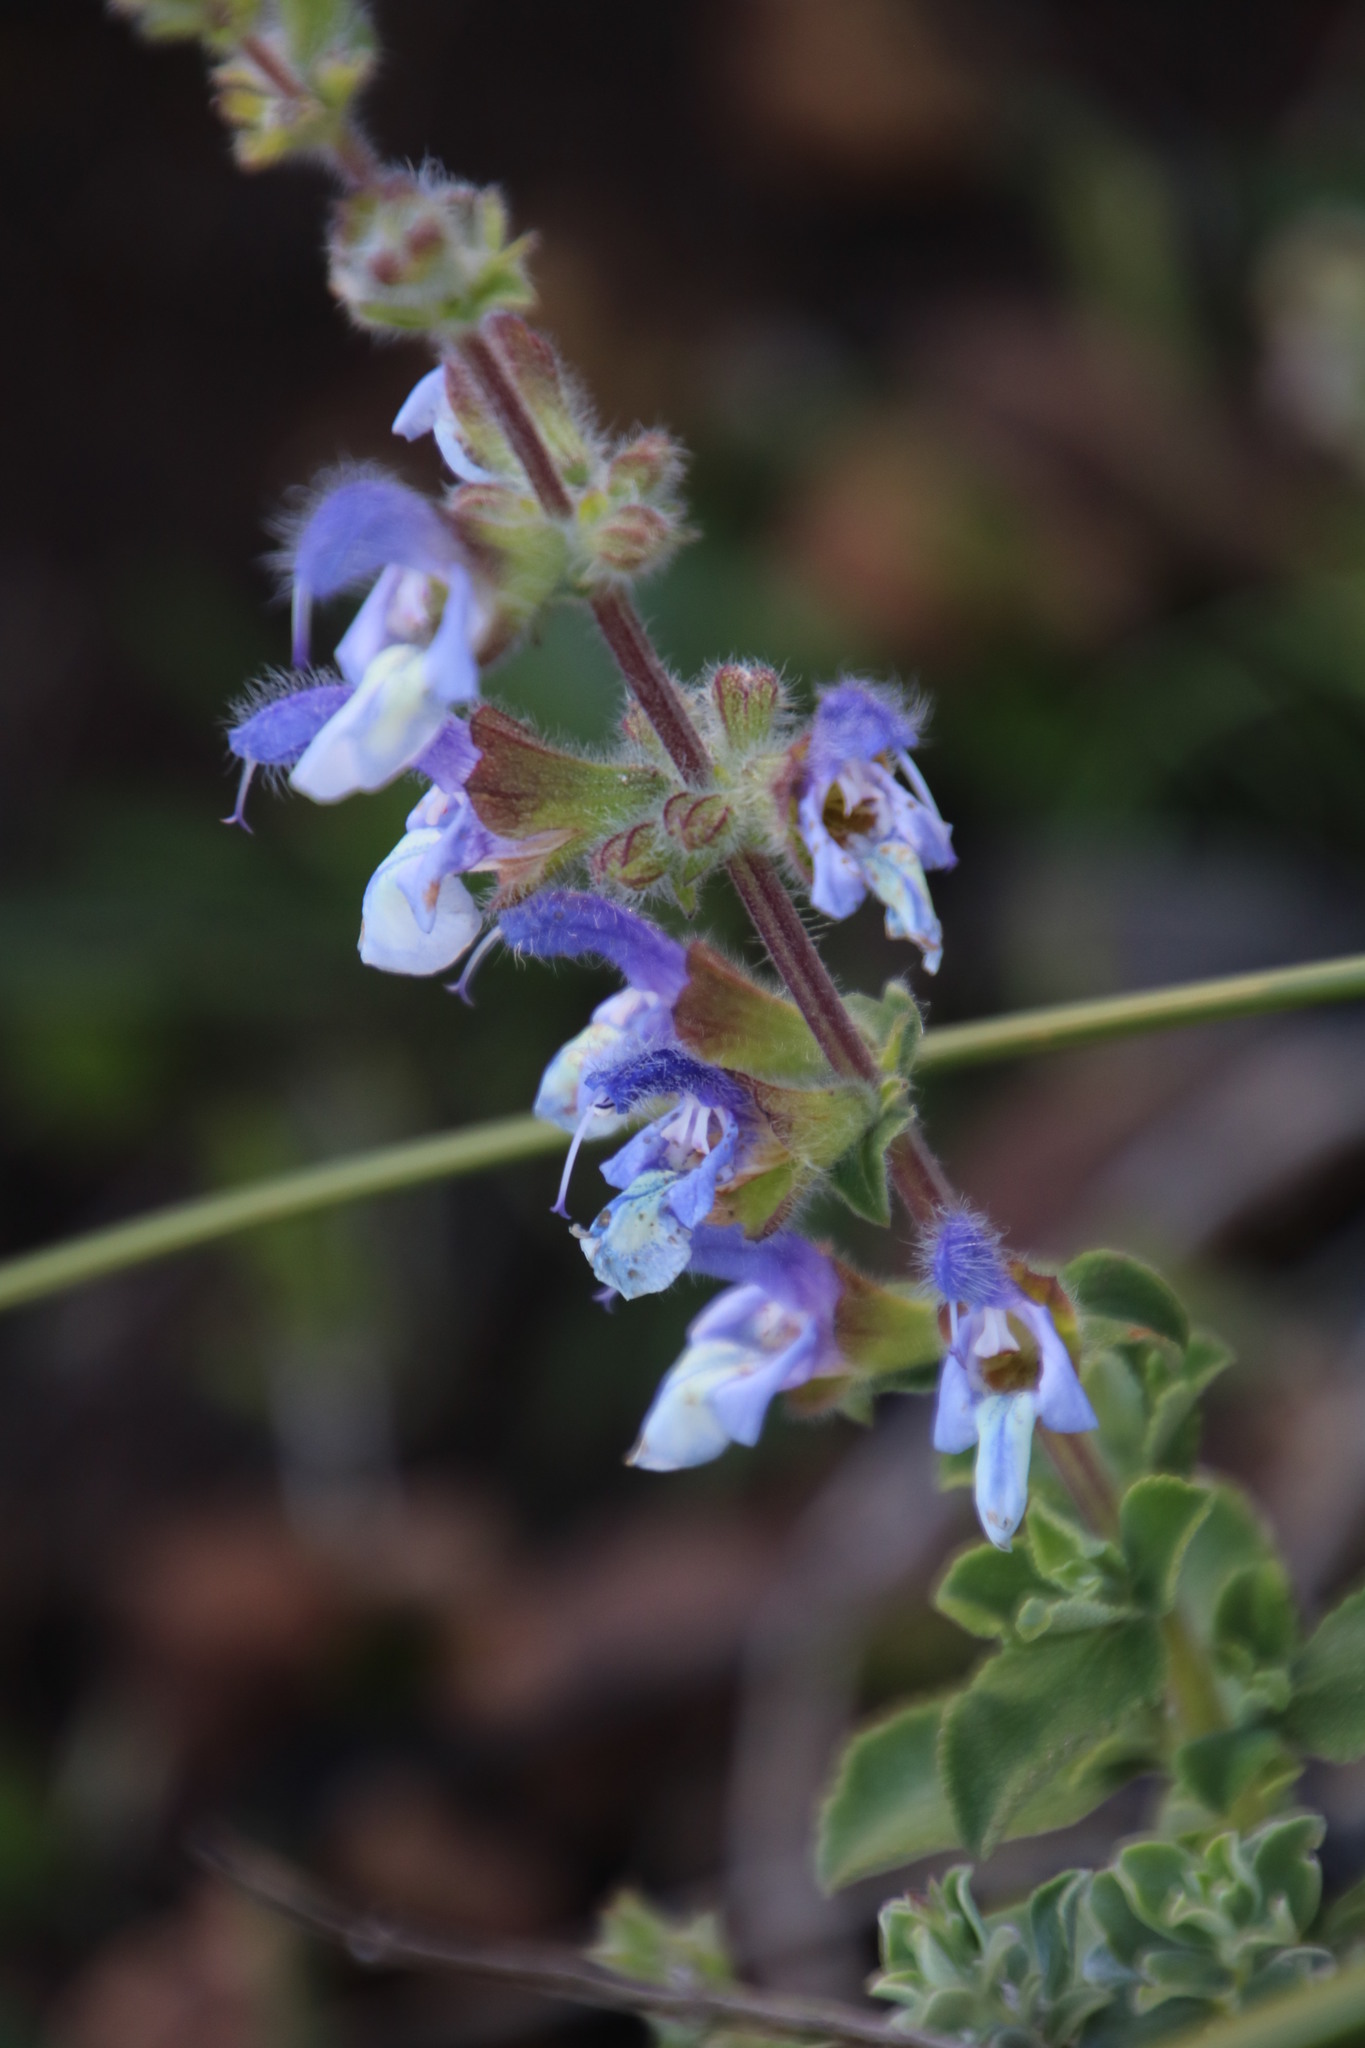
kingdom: Plantae
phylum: Tracheophyta
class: Magnoliopsida
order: Lamiales
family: Lamiaceae
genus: Salvia
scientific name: Salvia africana
